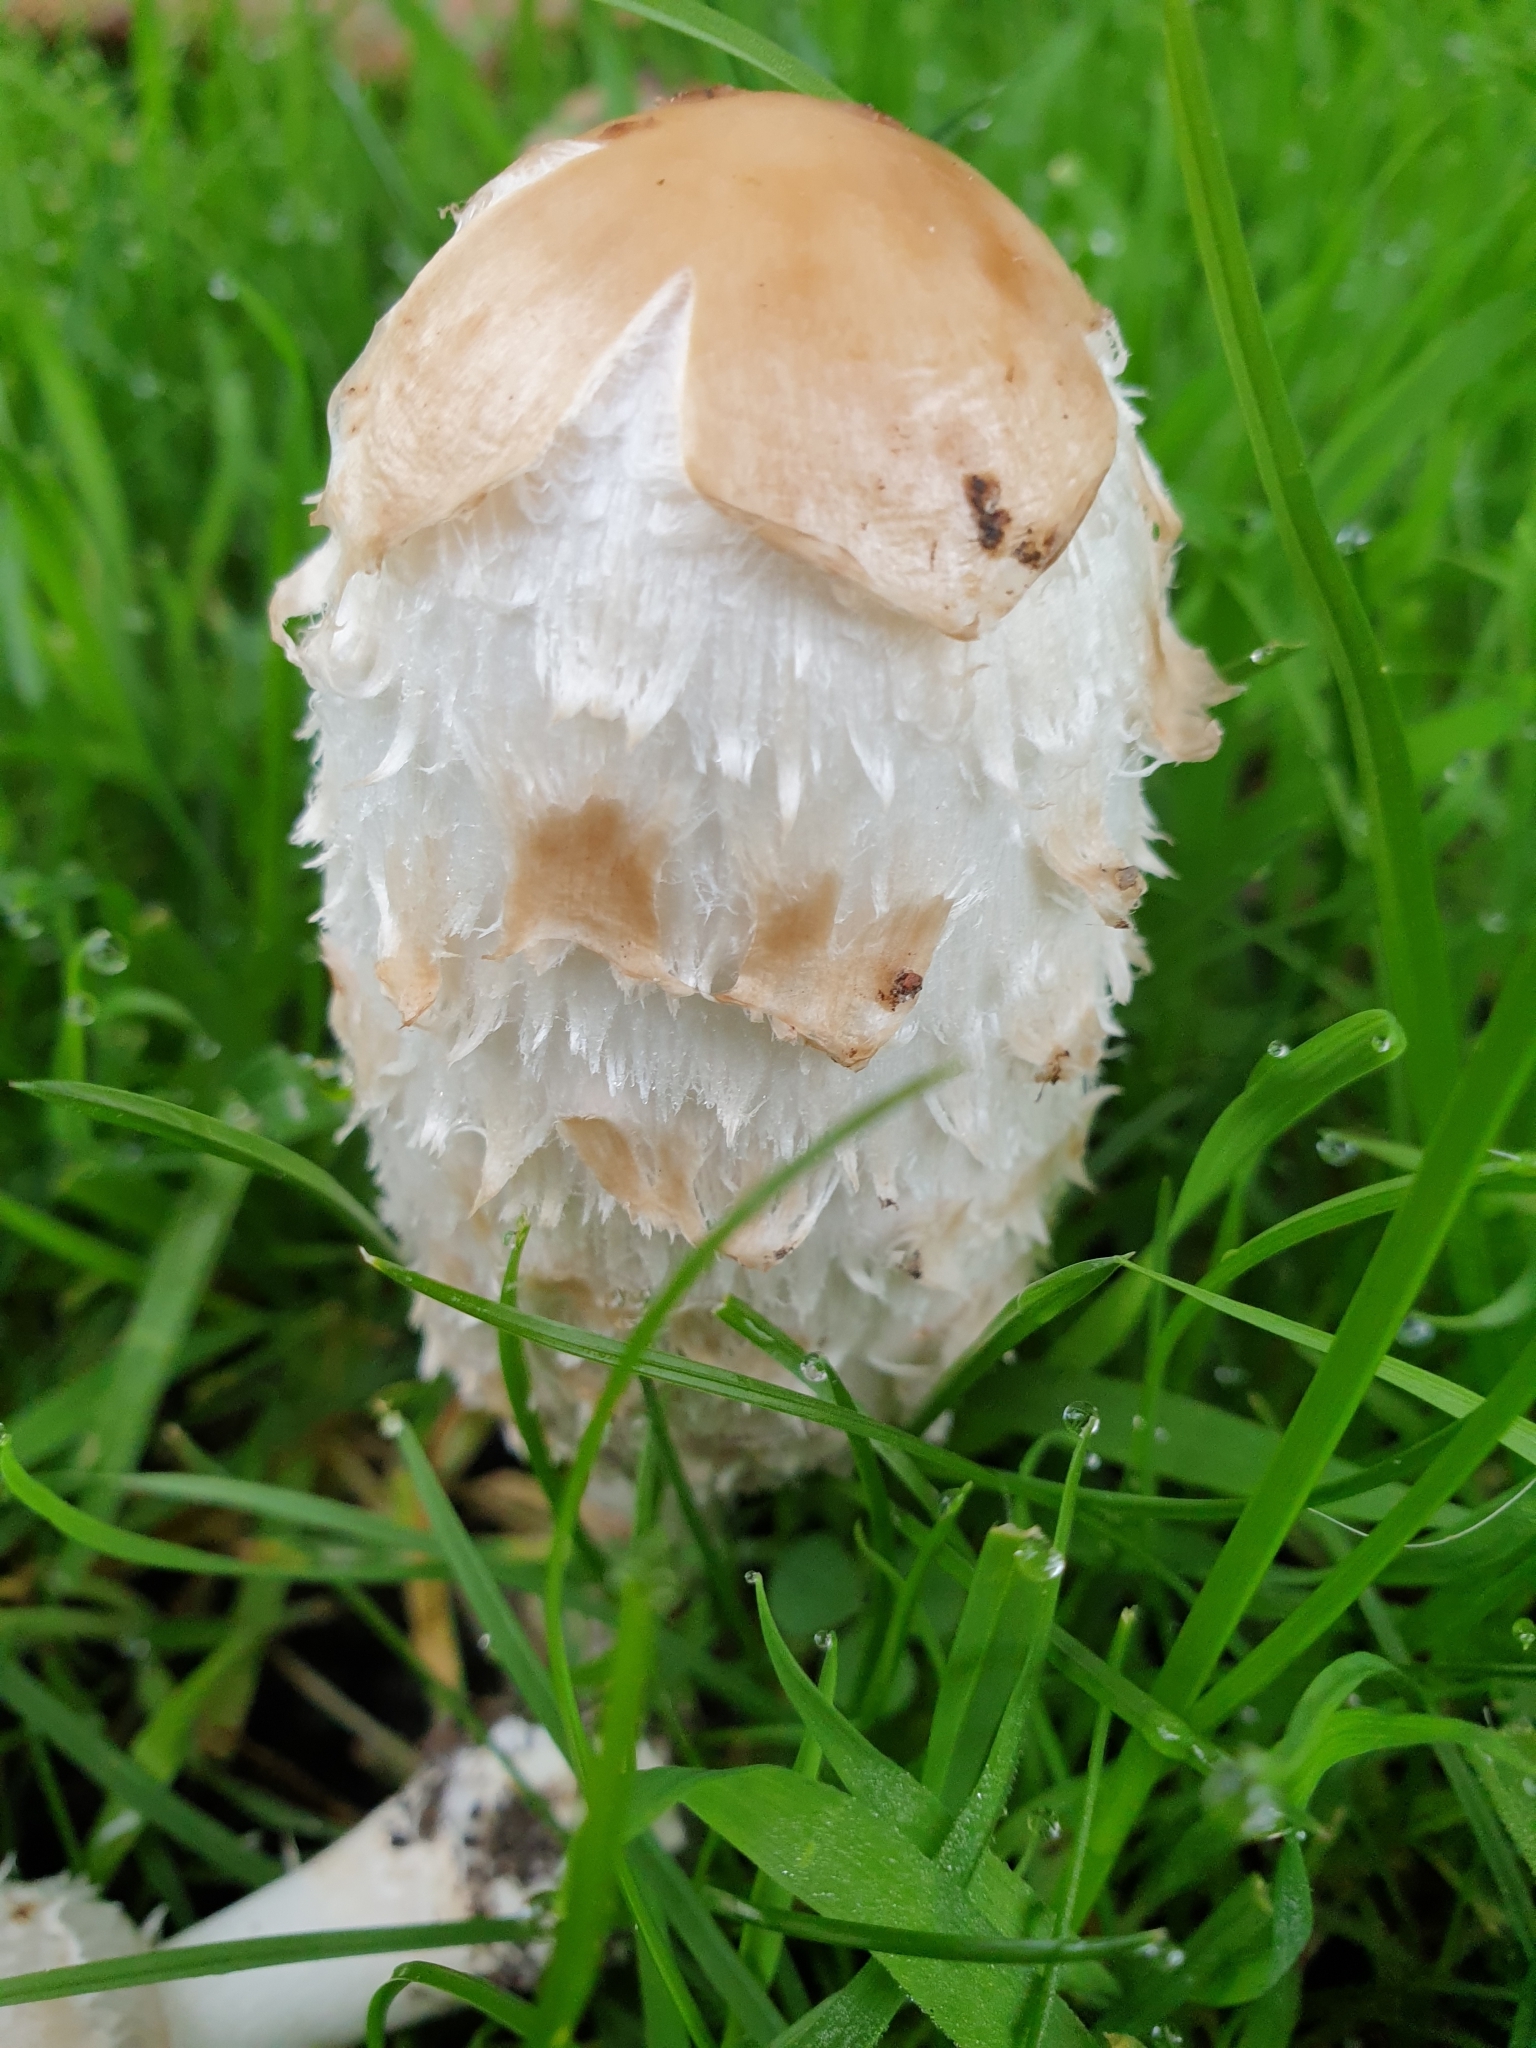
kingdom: Fungi
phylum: Basidiomycota
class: Agaricomycetes
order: Agaricales
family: Agaricaceae
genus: Coprinus
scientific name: Coprinus comatus
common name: Lawyer's wig
